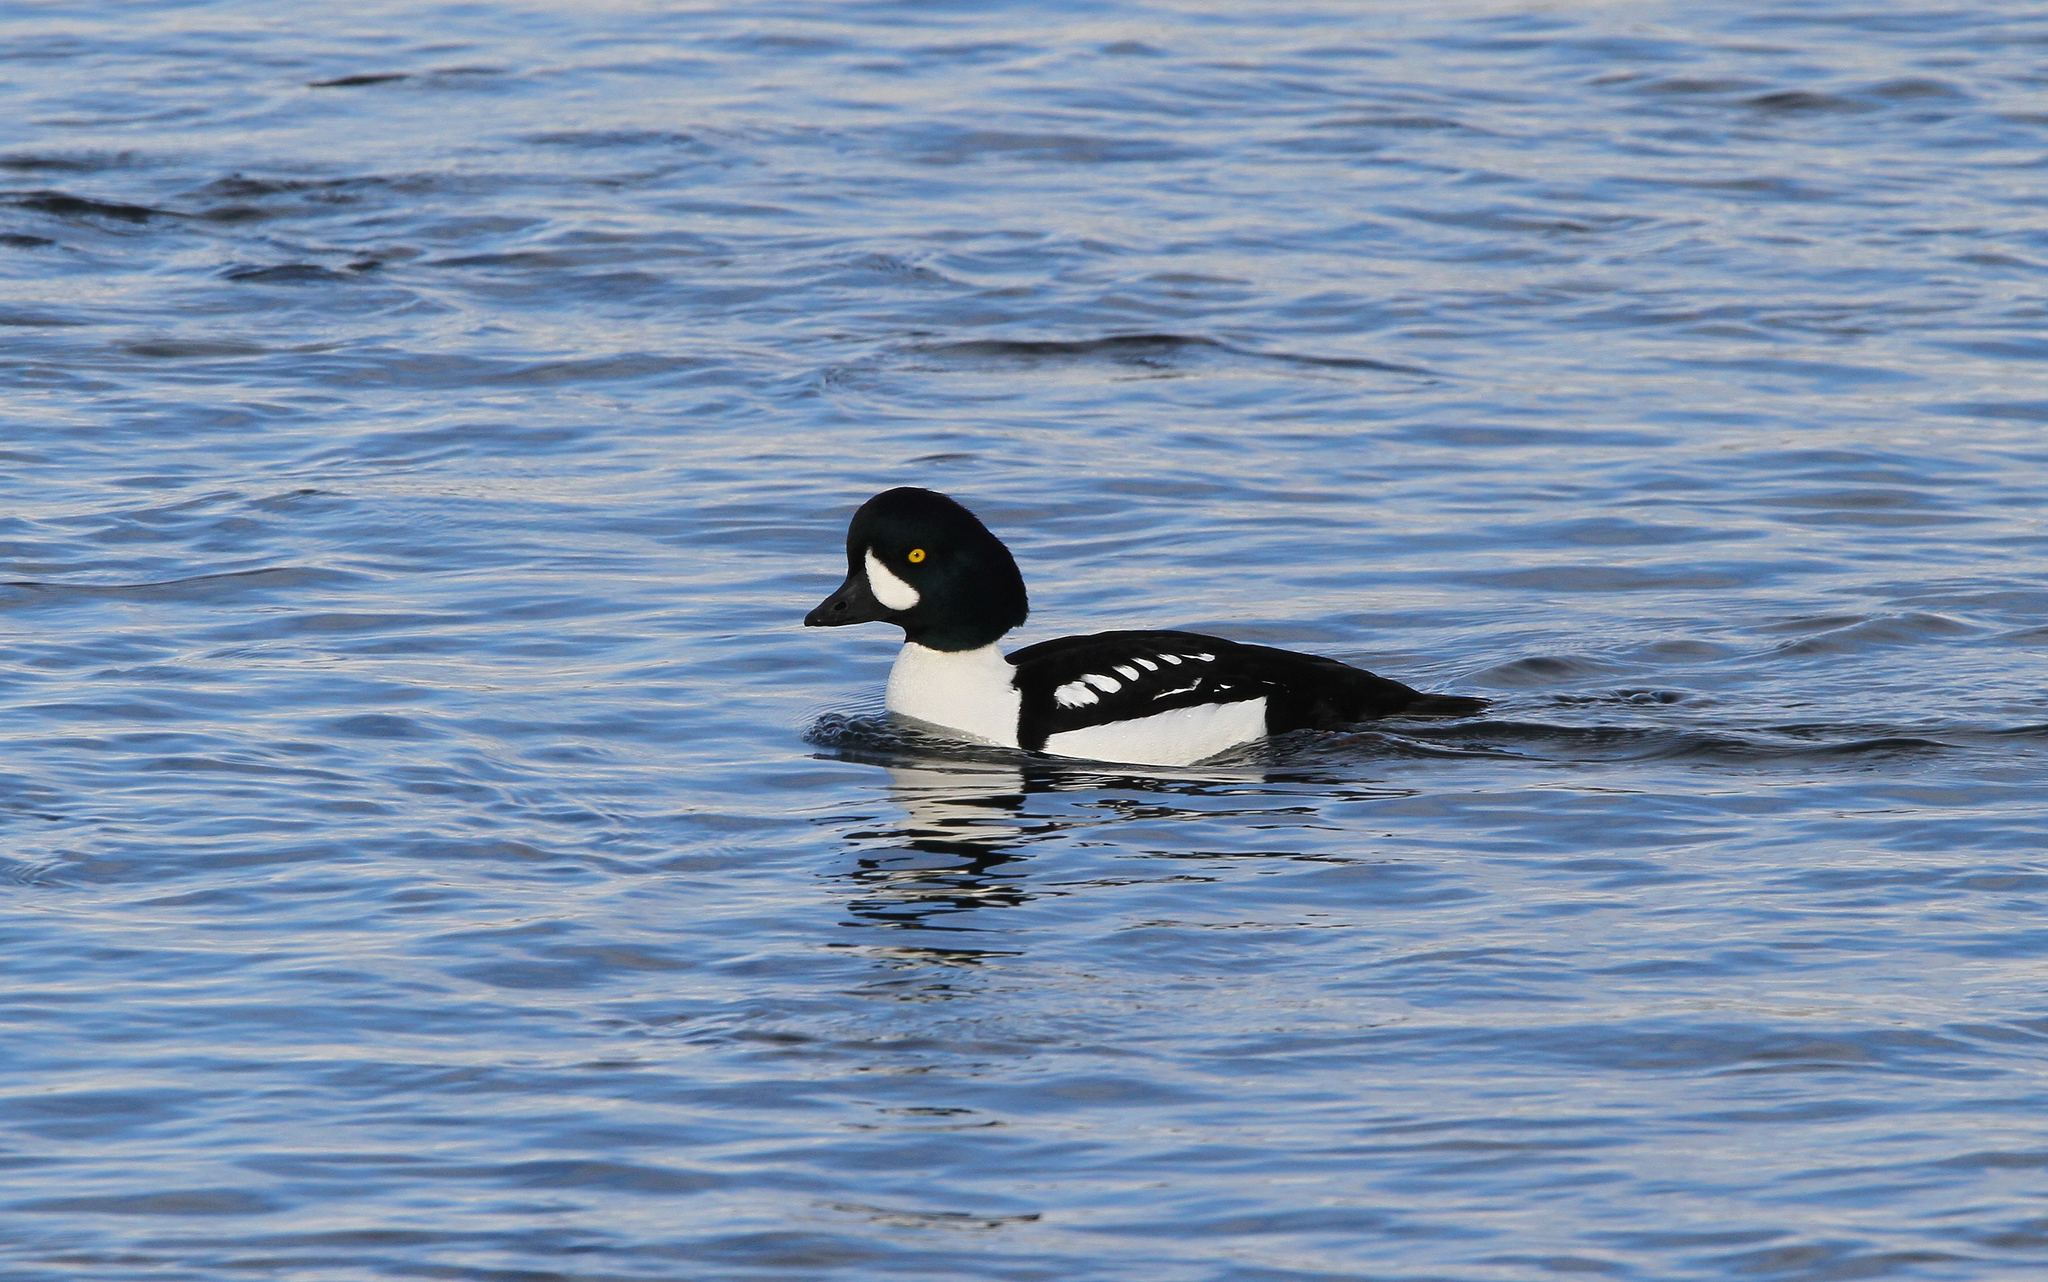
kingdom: Animalia
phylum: Chordata
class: Aves
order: Anseriformes
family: Anatidae
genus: Bucephala
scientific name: Bucephala islandica
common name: Barrow's goldeneye
